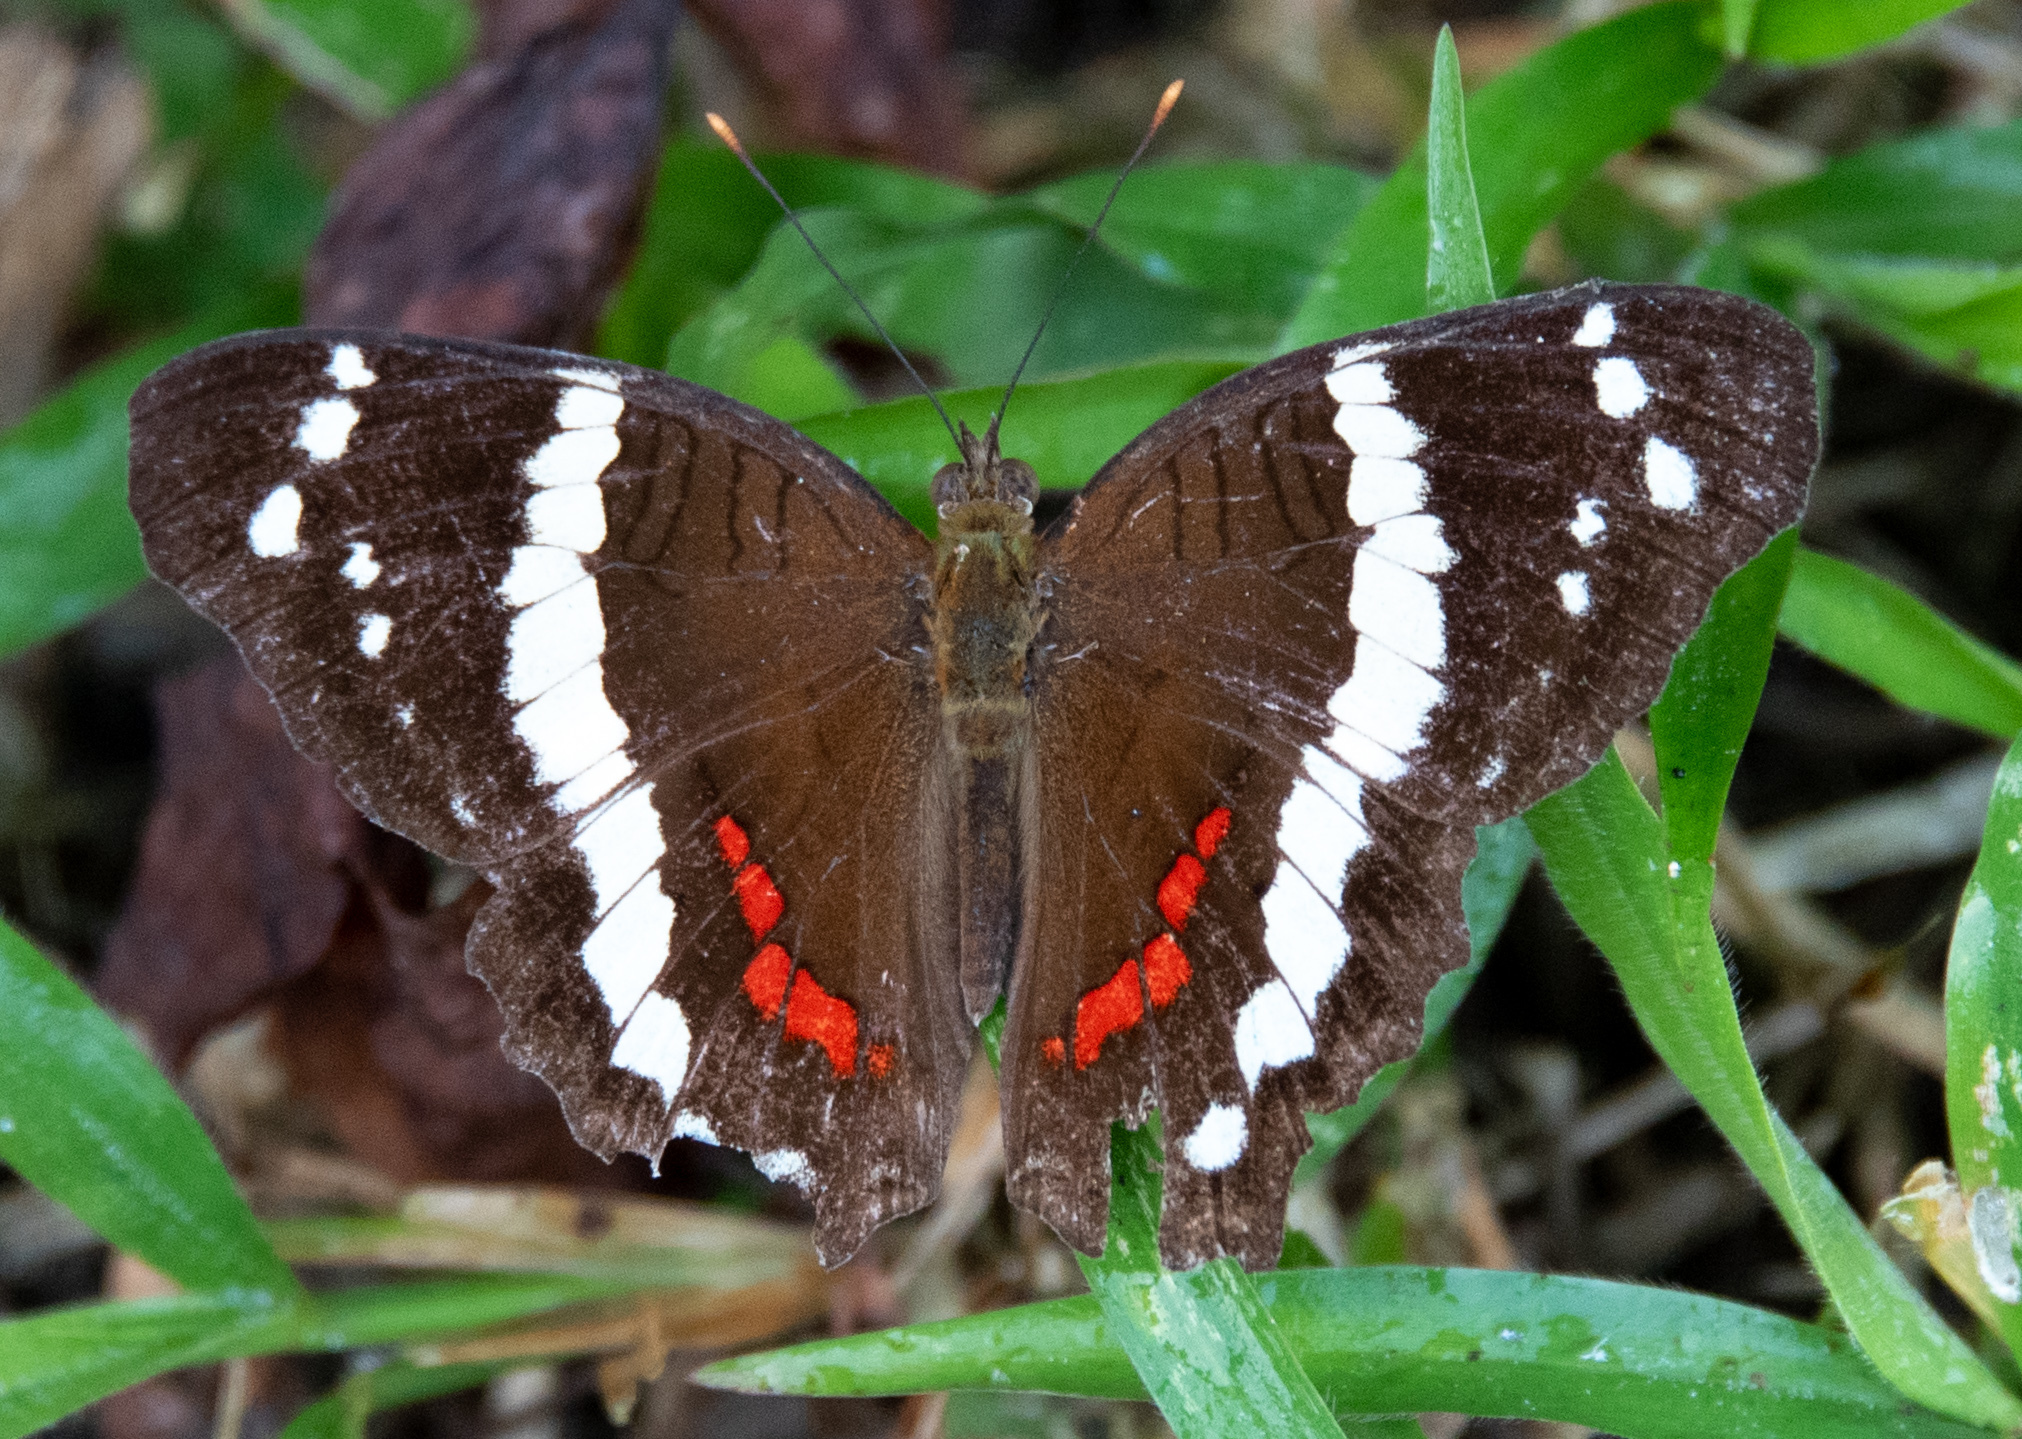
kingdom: Animalia
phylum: Arthropoda
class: Insecta
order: Lepidoptera
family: Nymphalidae
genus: Anartia
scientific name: Anartia fatima
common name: Banded peacock
